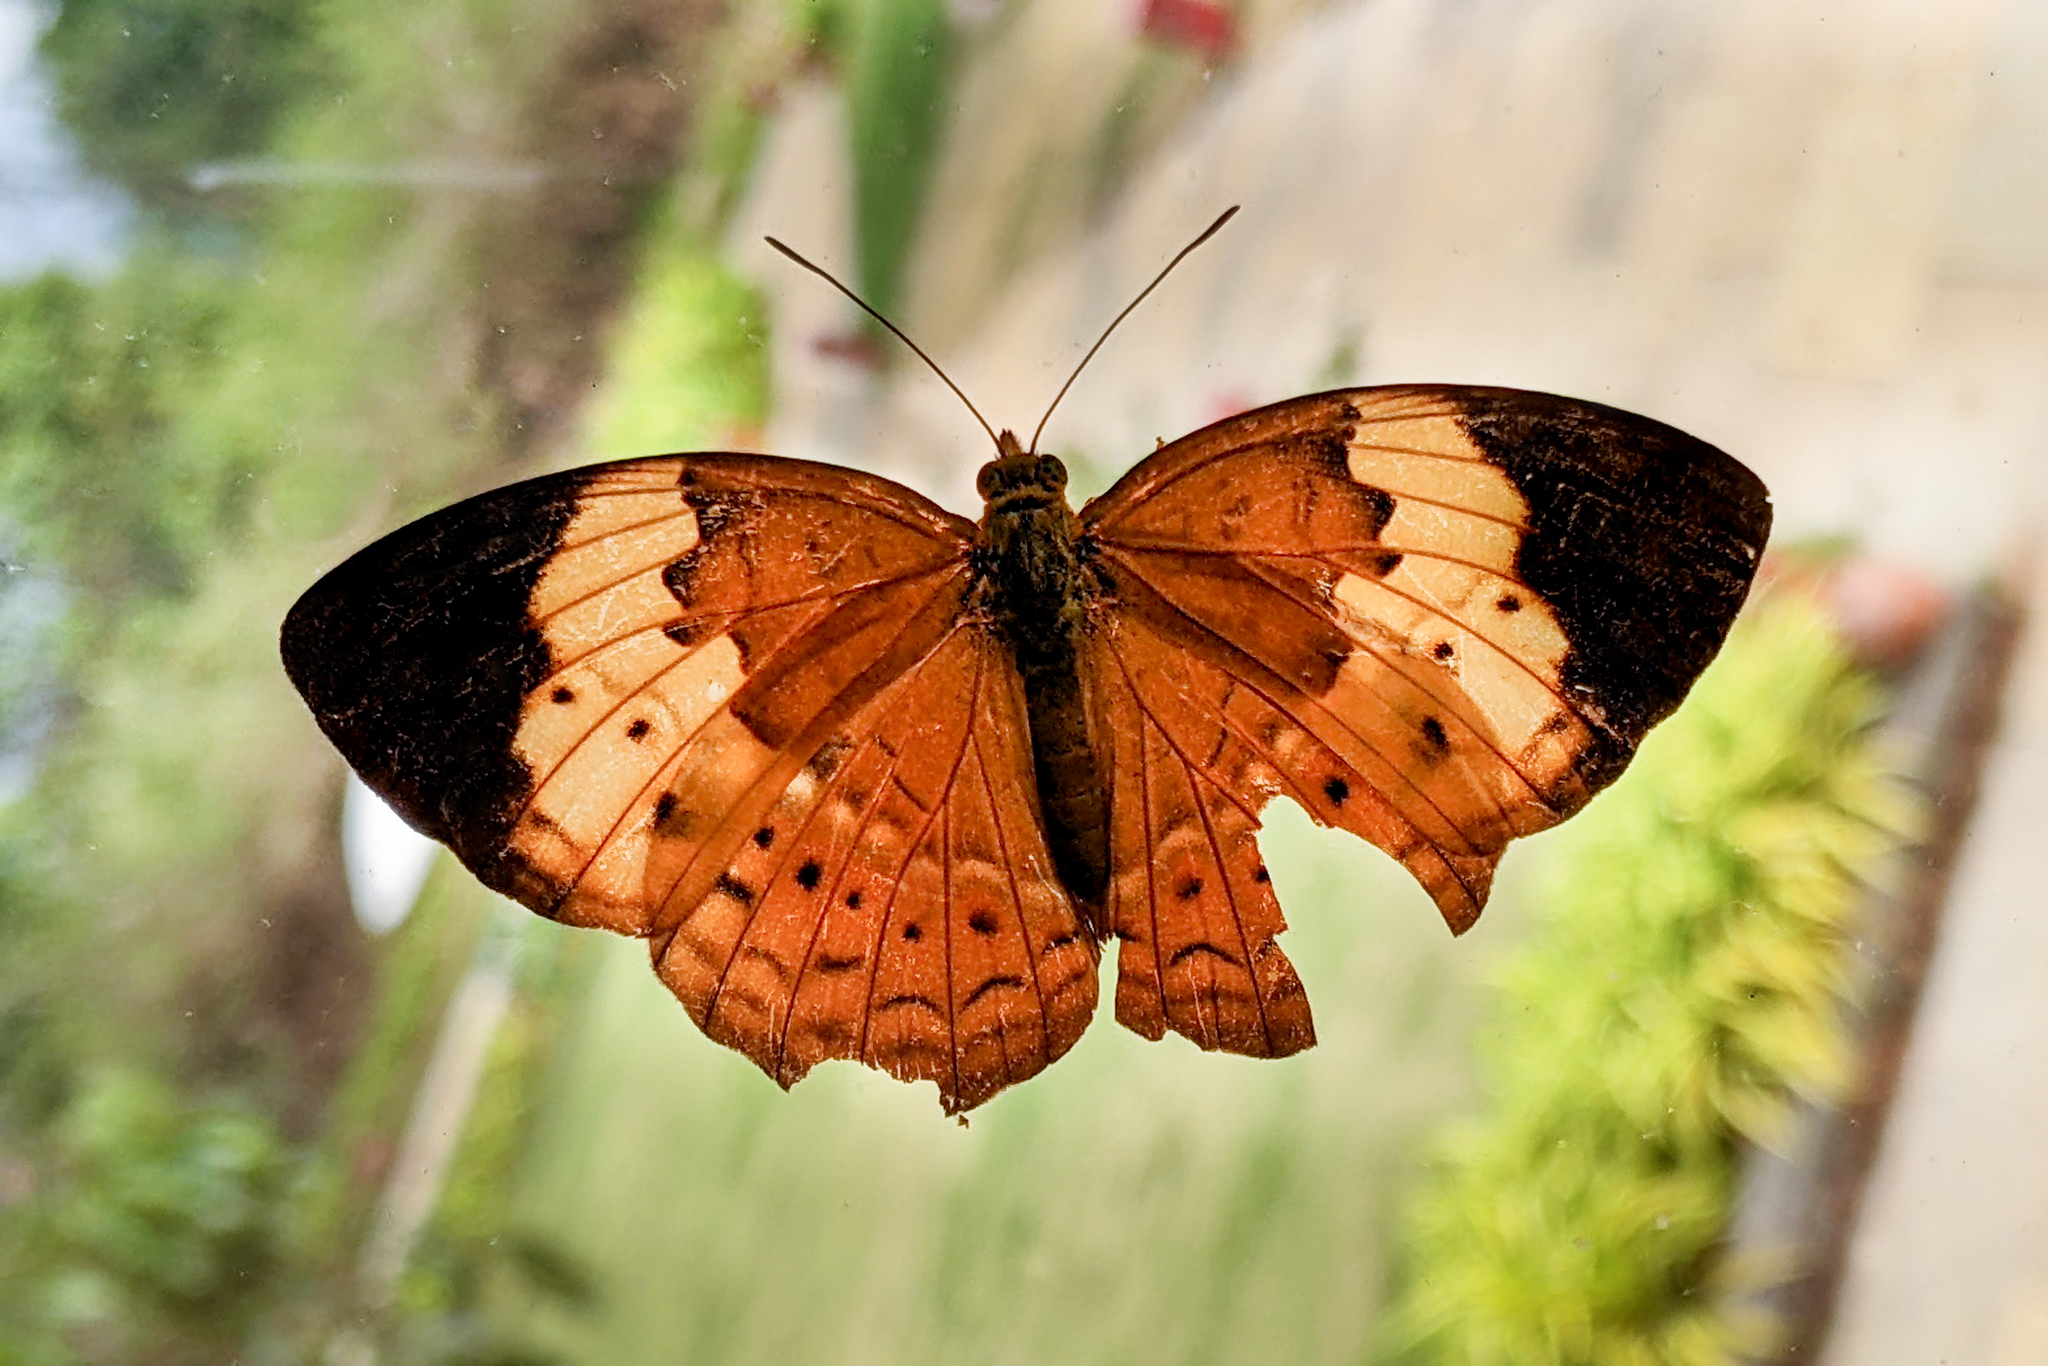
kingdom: Animalia
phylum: Arthropoda
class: Insecta
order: Lepidoptera
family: Nymphalidae
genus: Cupha
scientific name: Cupha erymanthis
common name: Rustic
